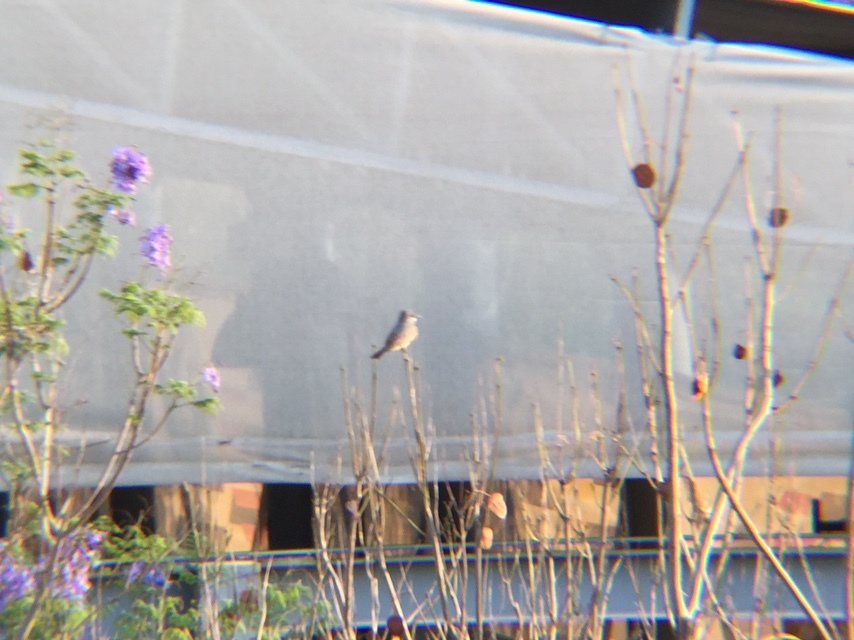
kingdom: Animalia
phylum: Chordata
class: Aves
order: Passeriformes
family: Tyrannidae
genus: Tyrannus
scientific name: Tyrannus vociferans
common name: Cassin's kingbird
